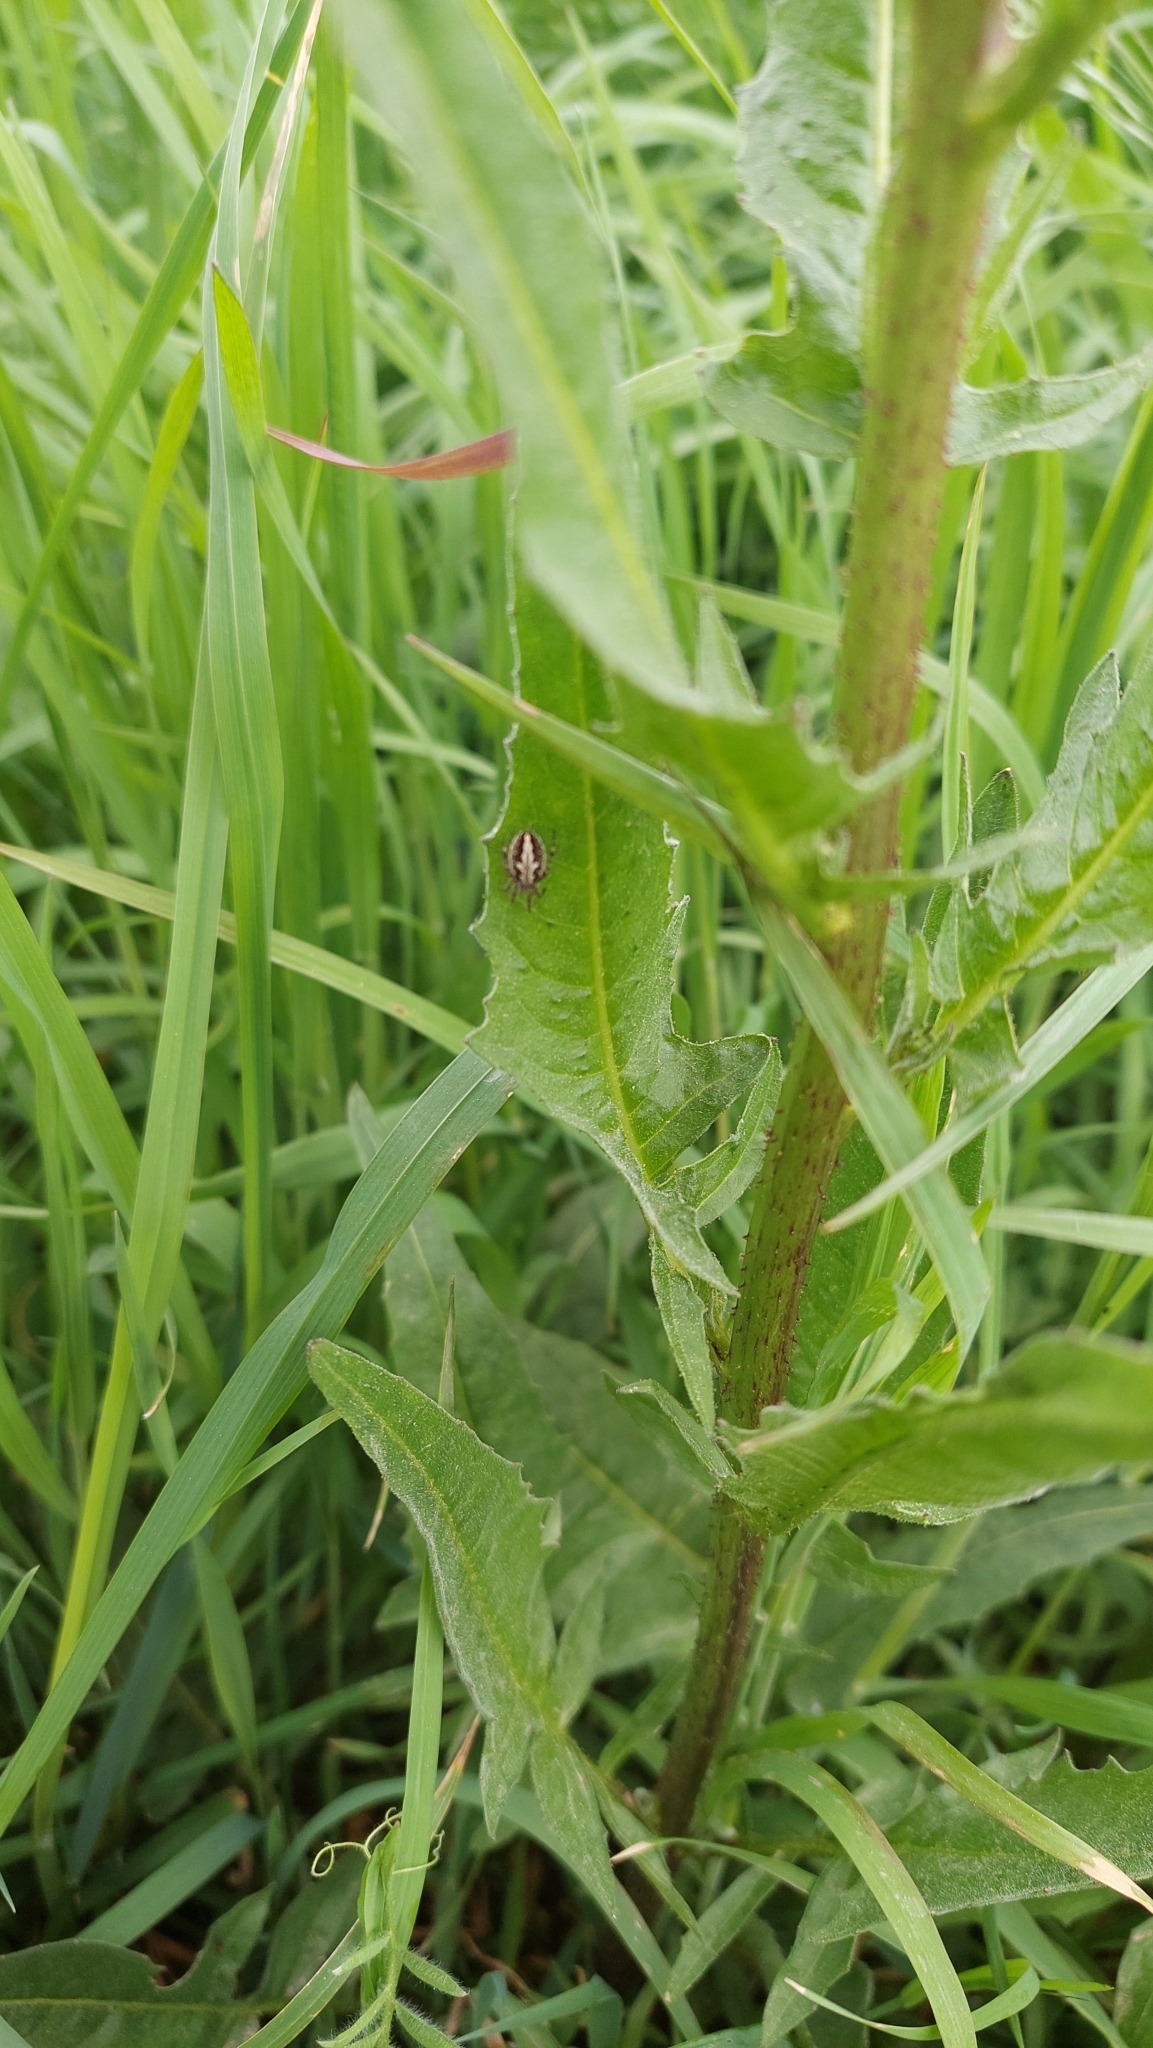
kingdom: Animalia
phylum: Arthropoda
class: Arachnida
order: Araneae
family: Araneidae
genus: Aculepeira
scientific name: Aculepeira ceropegia
